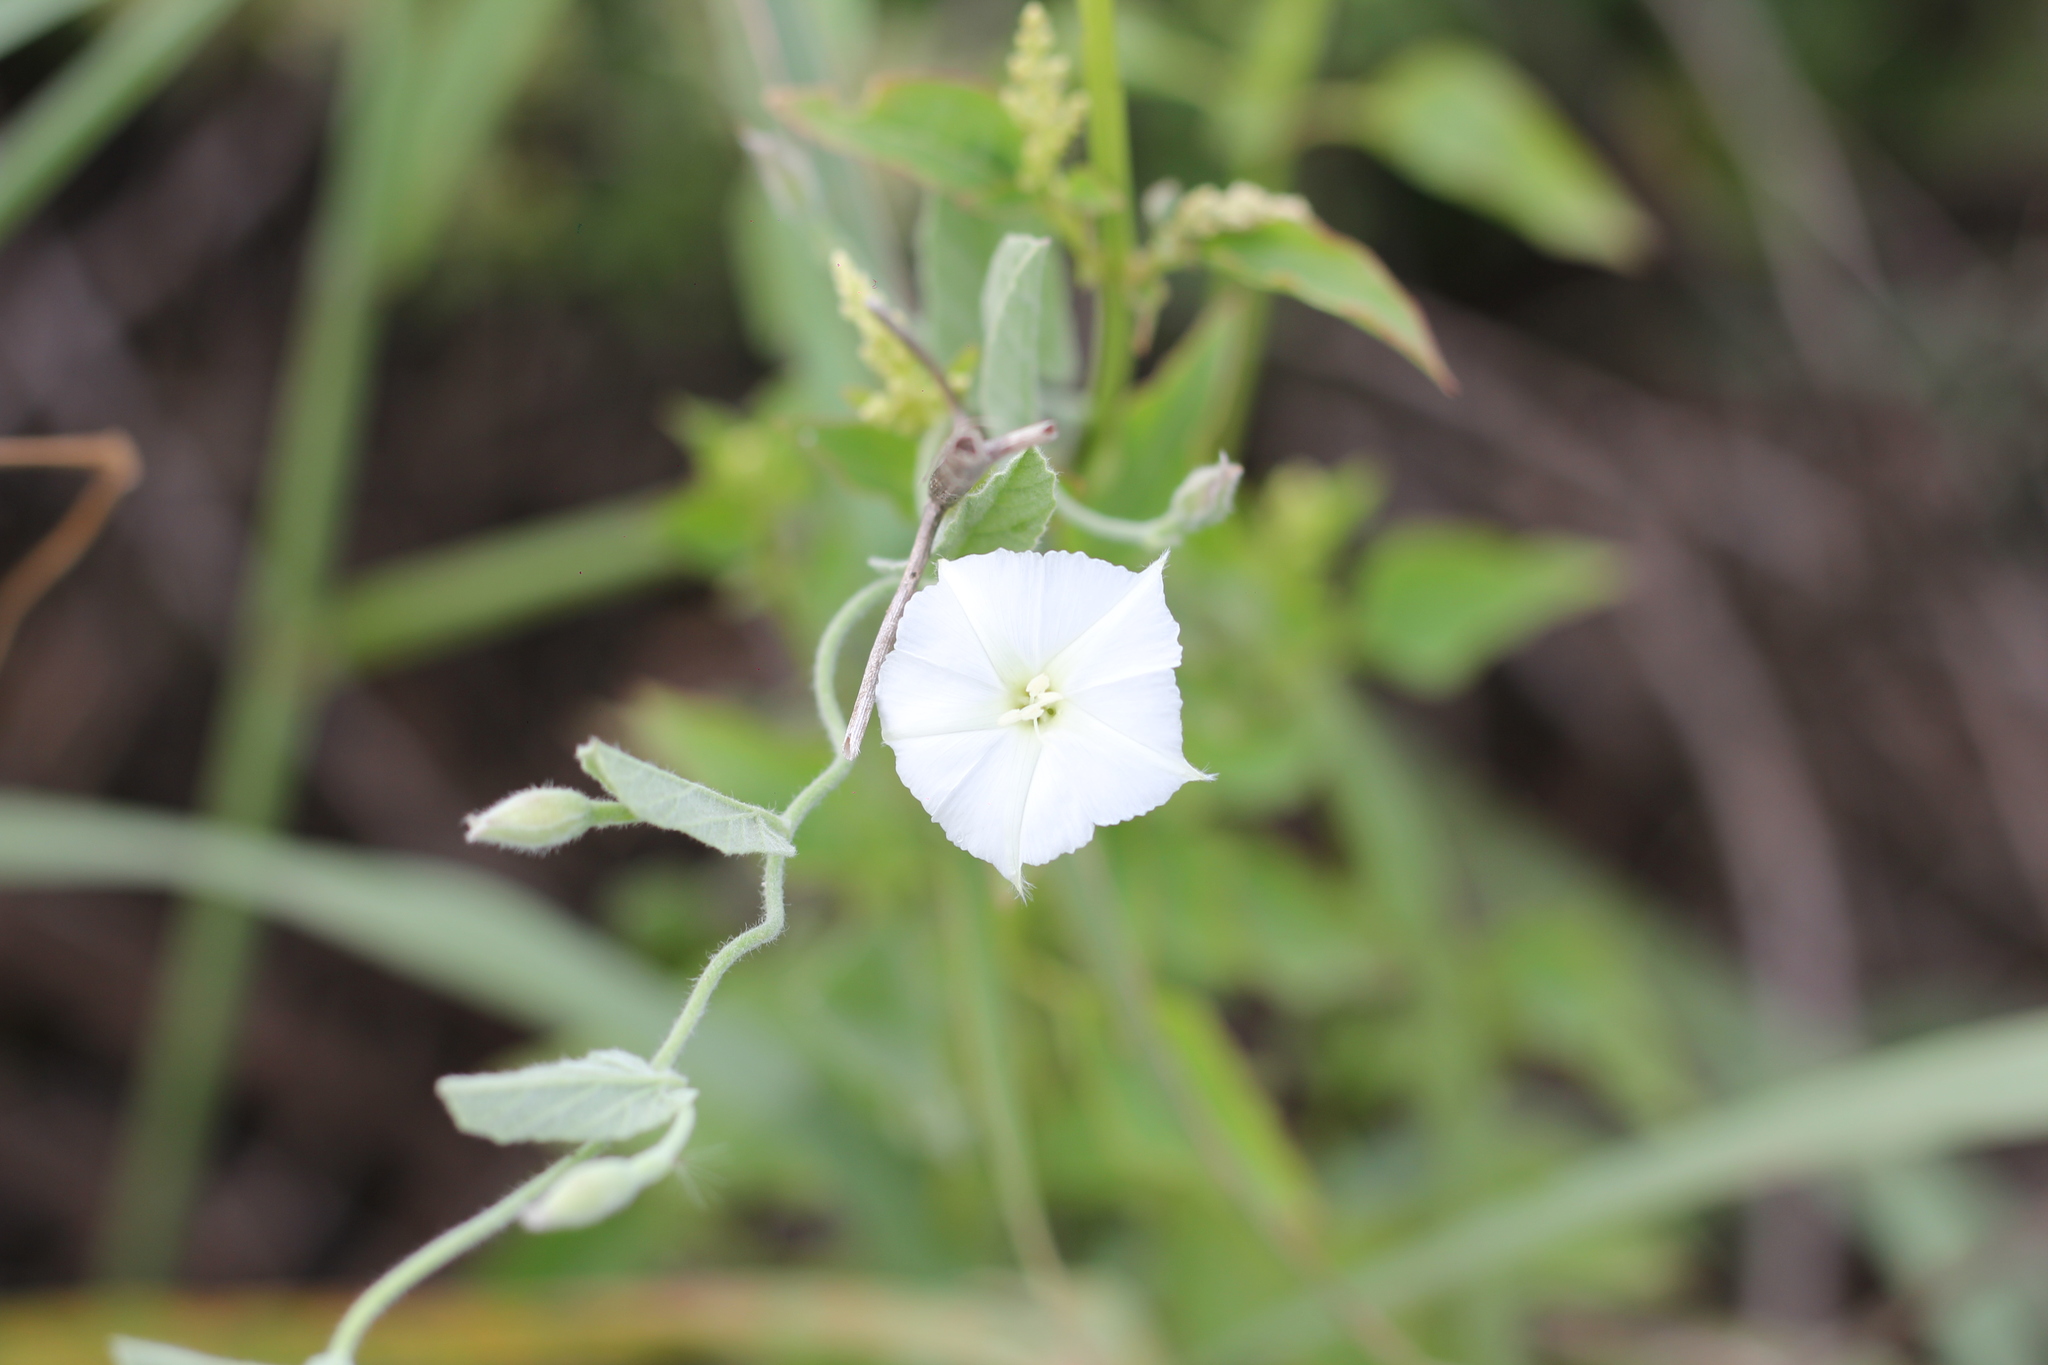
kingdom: Plantae
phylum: Tracheophyta
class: Magnoliopsida
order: Solanales
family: Convolvulaceae
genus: Convolvulus
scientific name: Convolvulus hermanniae
